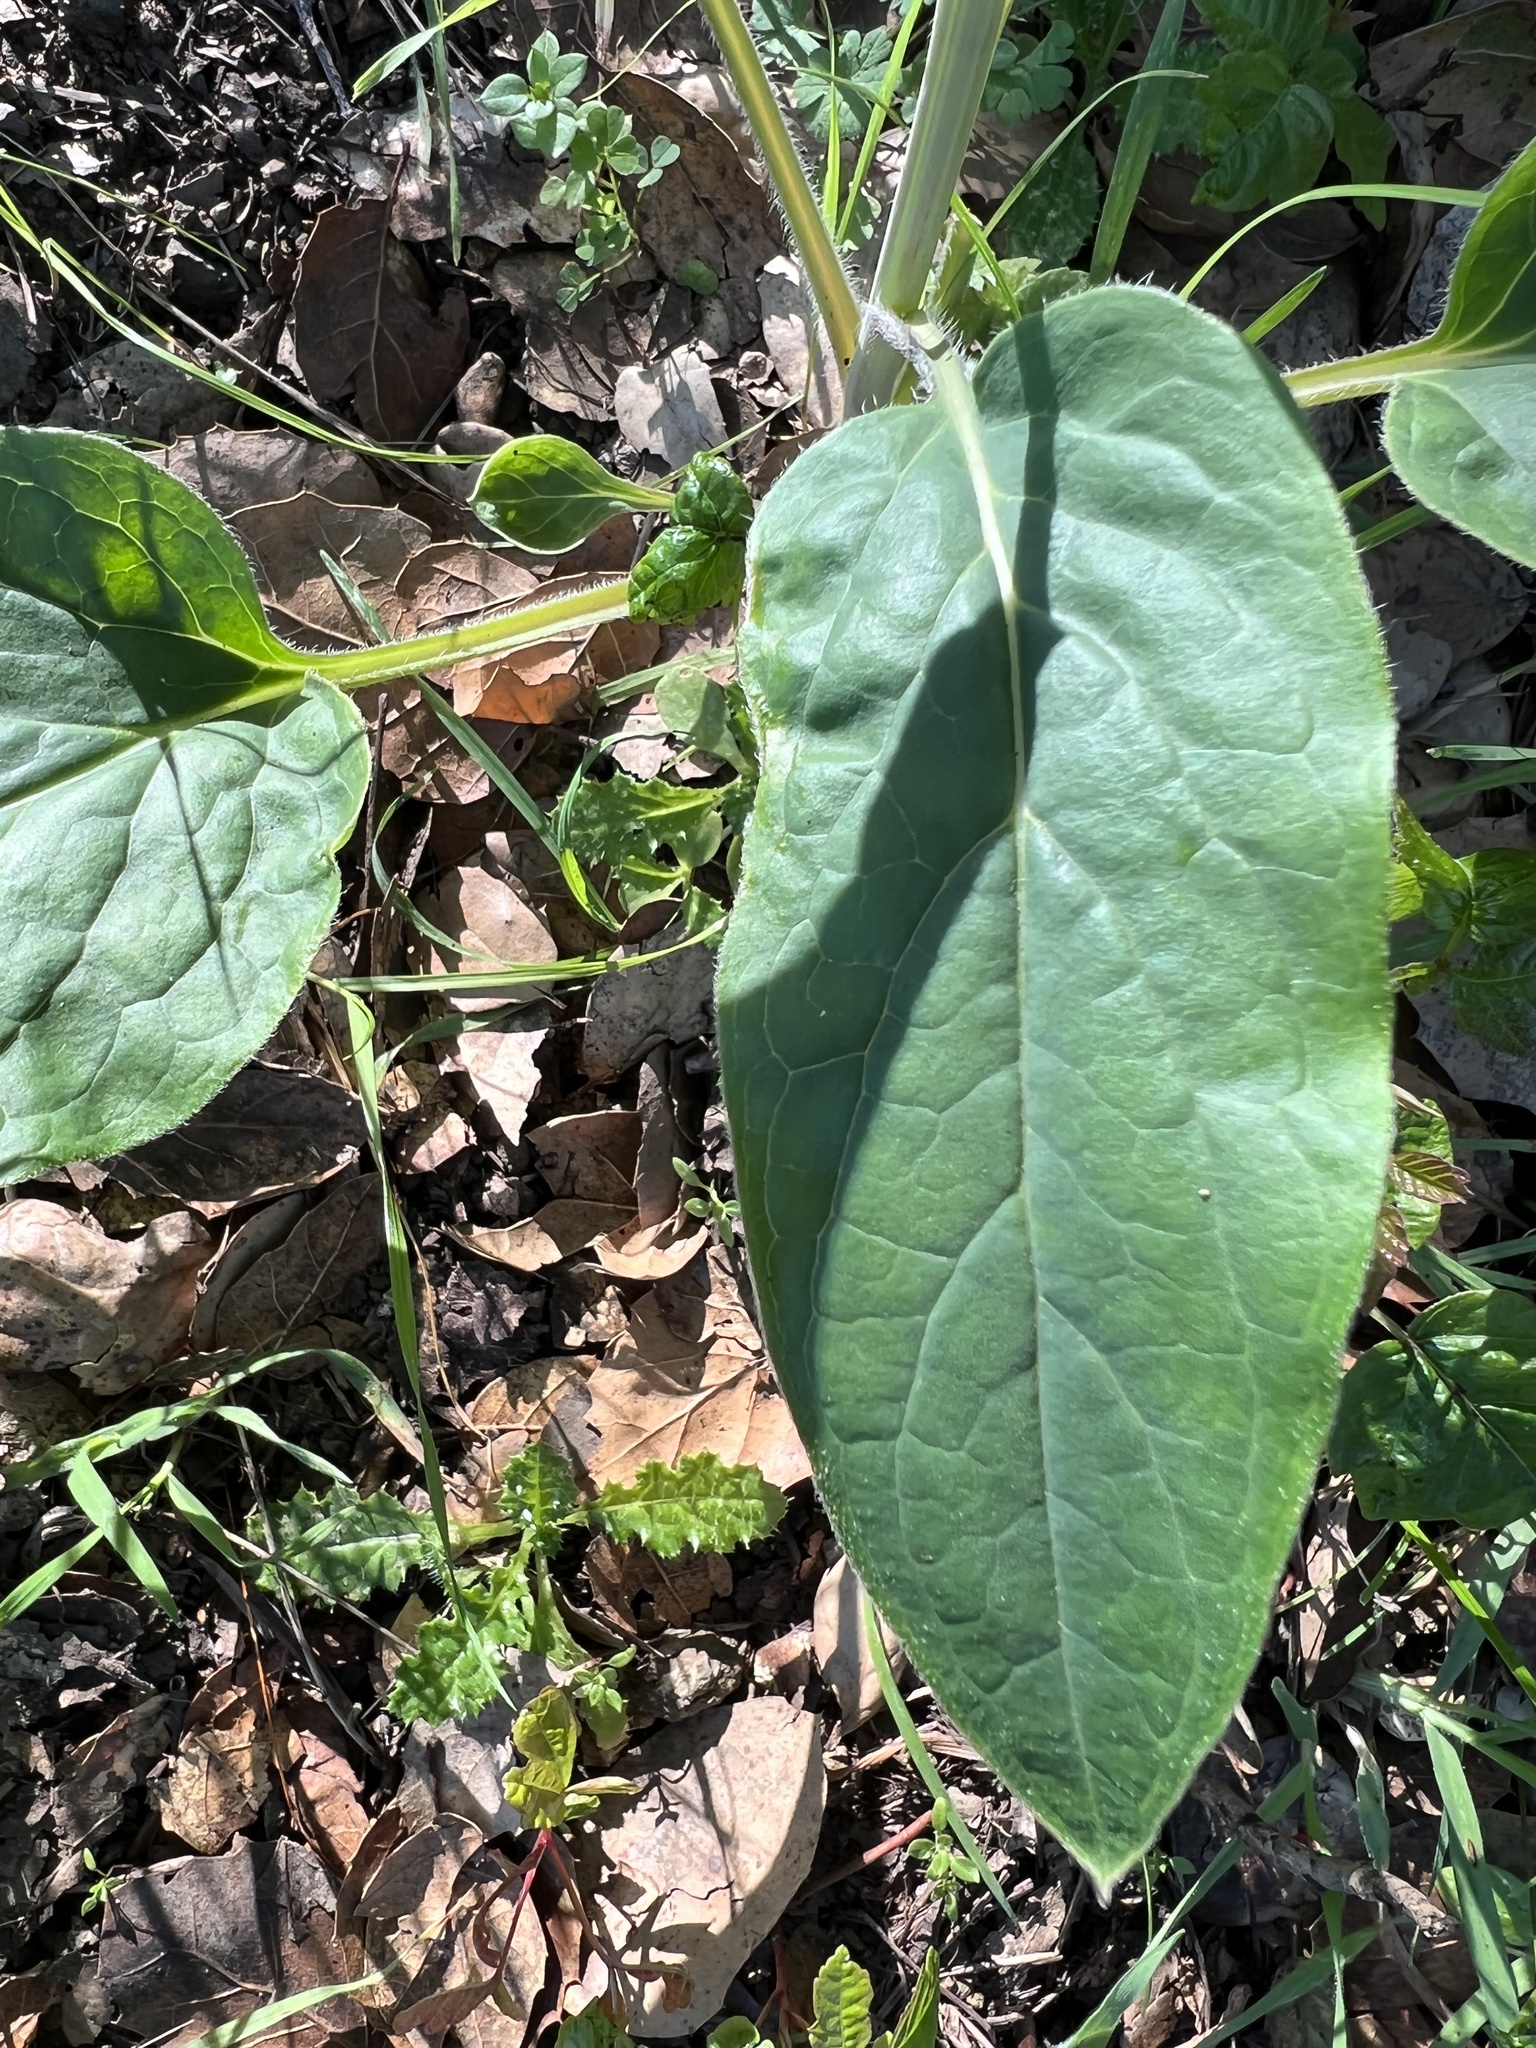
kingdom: Plantae
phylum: Tracheophyta
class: Magnoliopsida
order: Boraginales
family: Boraginaceae
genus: Adelinia
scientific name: Adelinia grande
